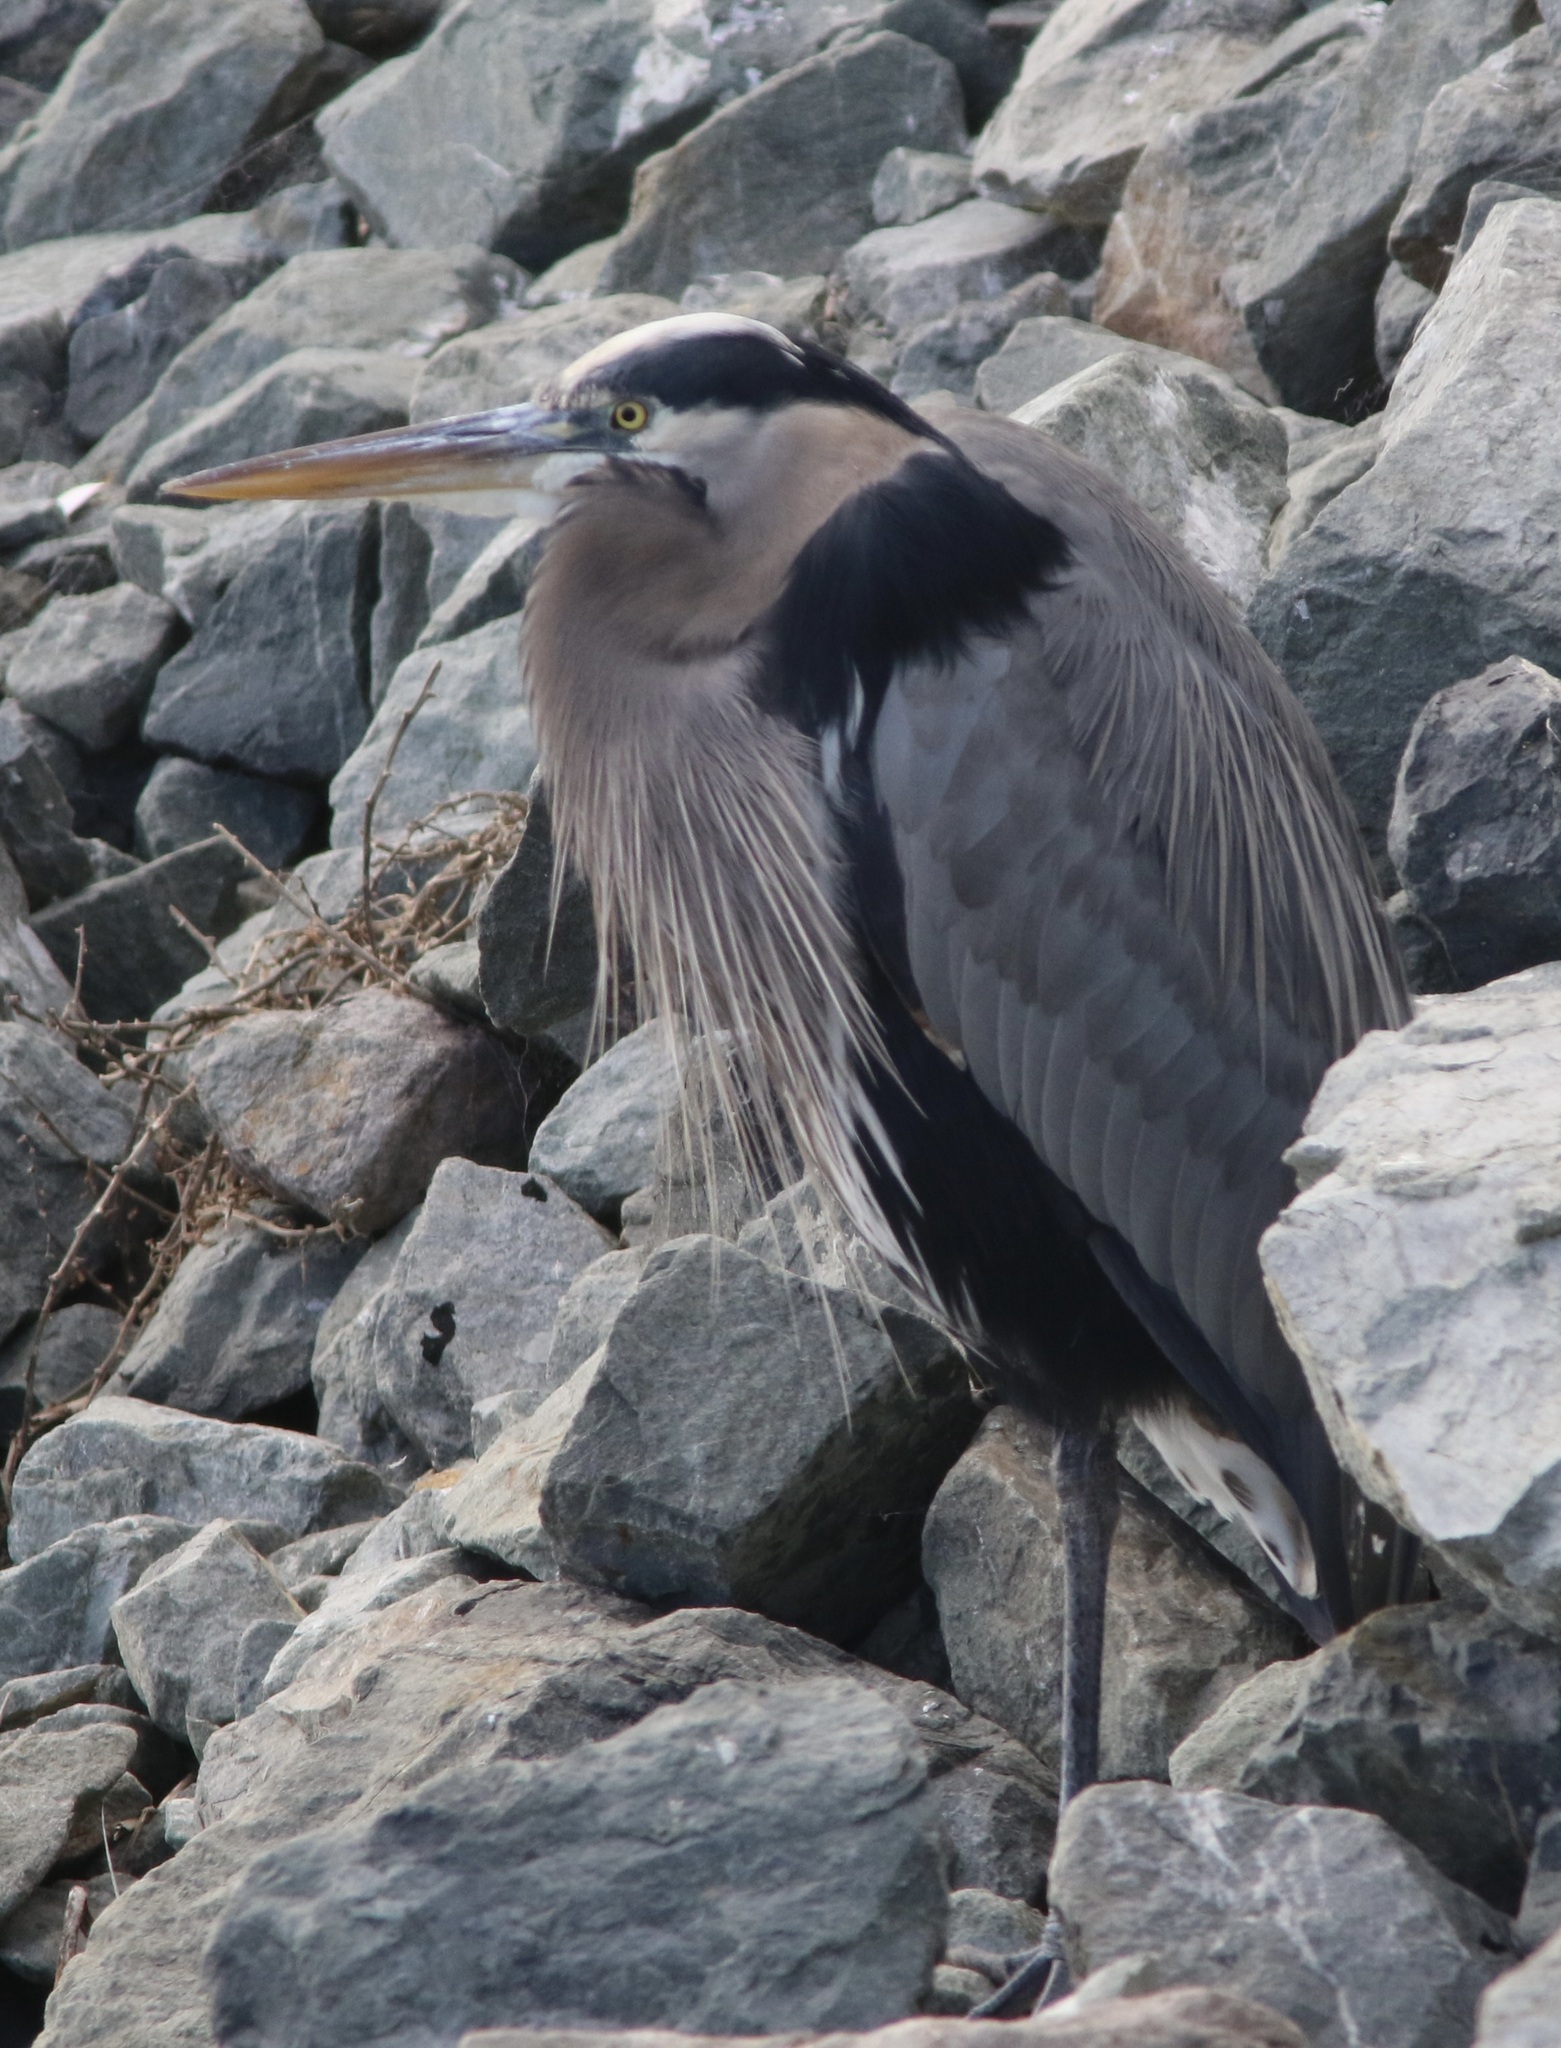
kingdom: Animalia
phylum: Chordata
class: Aves
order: Pelecaniformes
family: Ardeidae
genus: Ardea
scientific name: Ardea herodias
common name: Great blue heron
